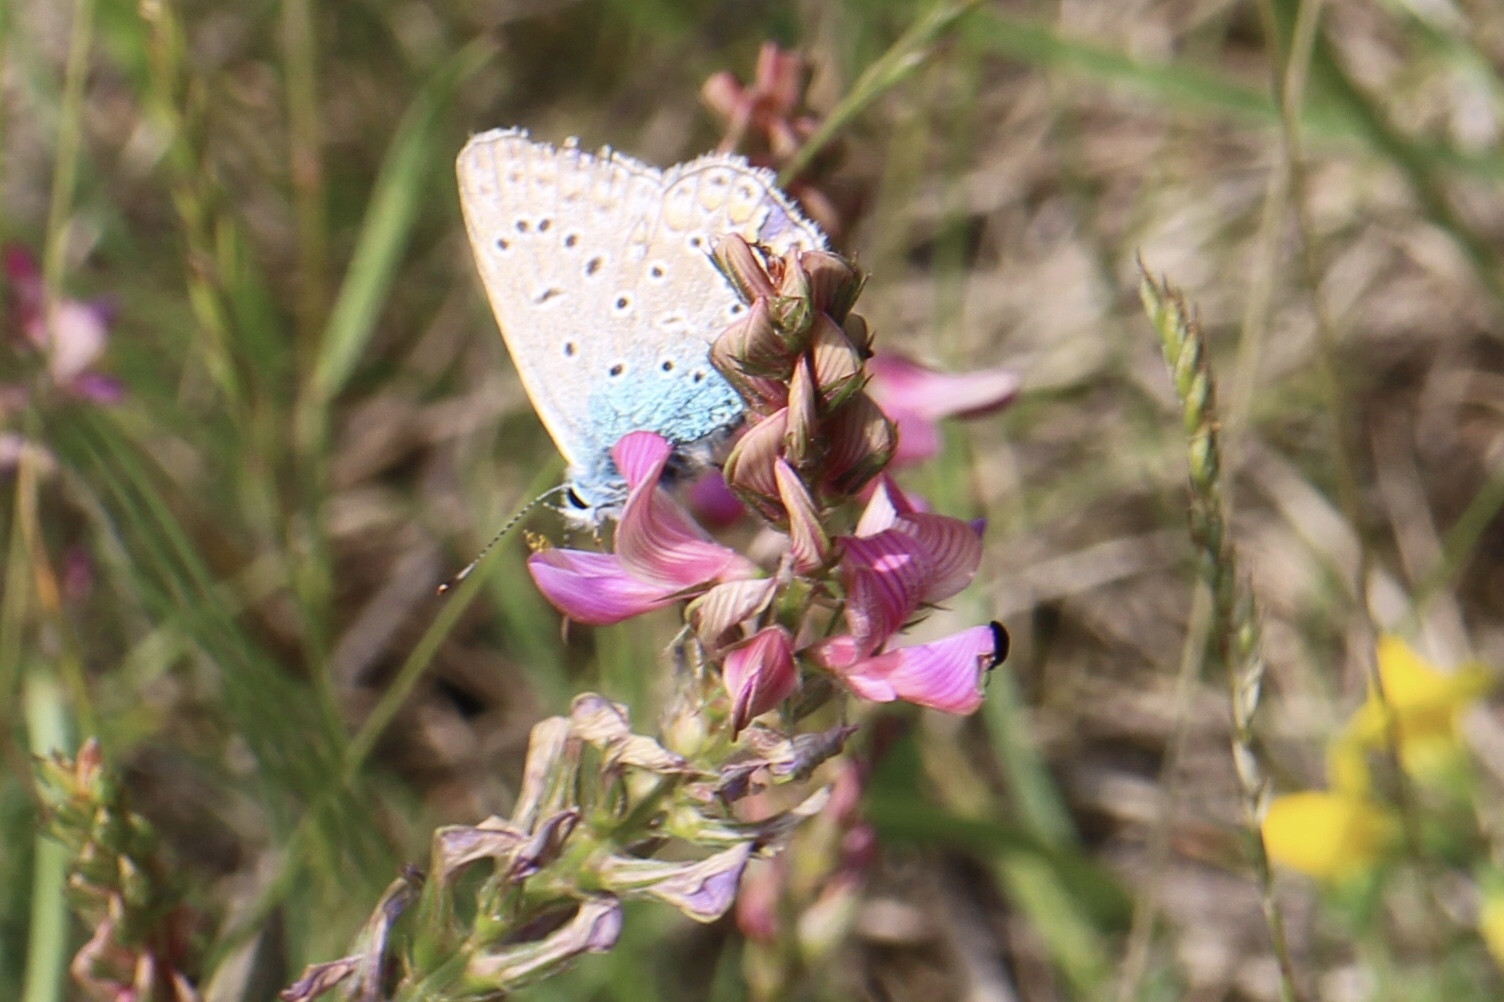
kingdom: Animalia
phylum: Arthropoda
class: Insecta
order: Lepidoptera
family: Lycaenidae
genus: Polyommatus
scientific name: Polyommatus icarus
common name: Common blue
